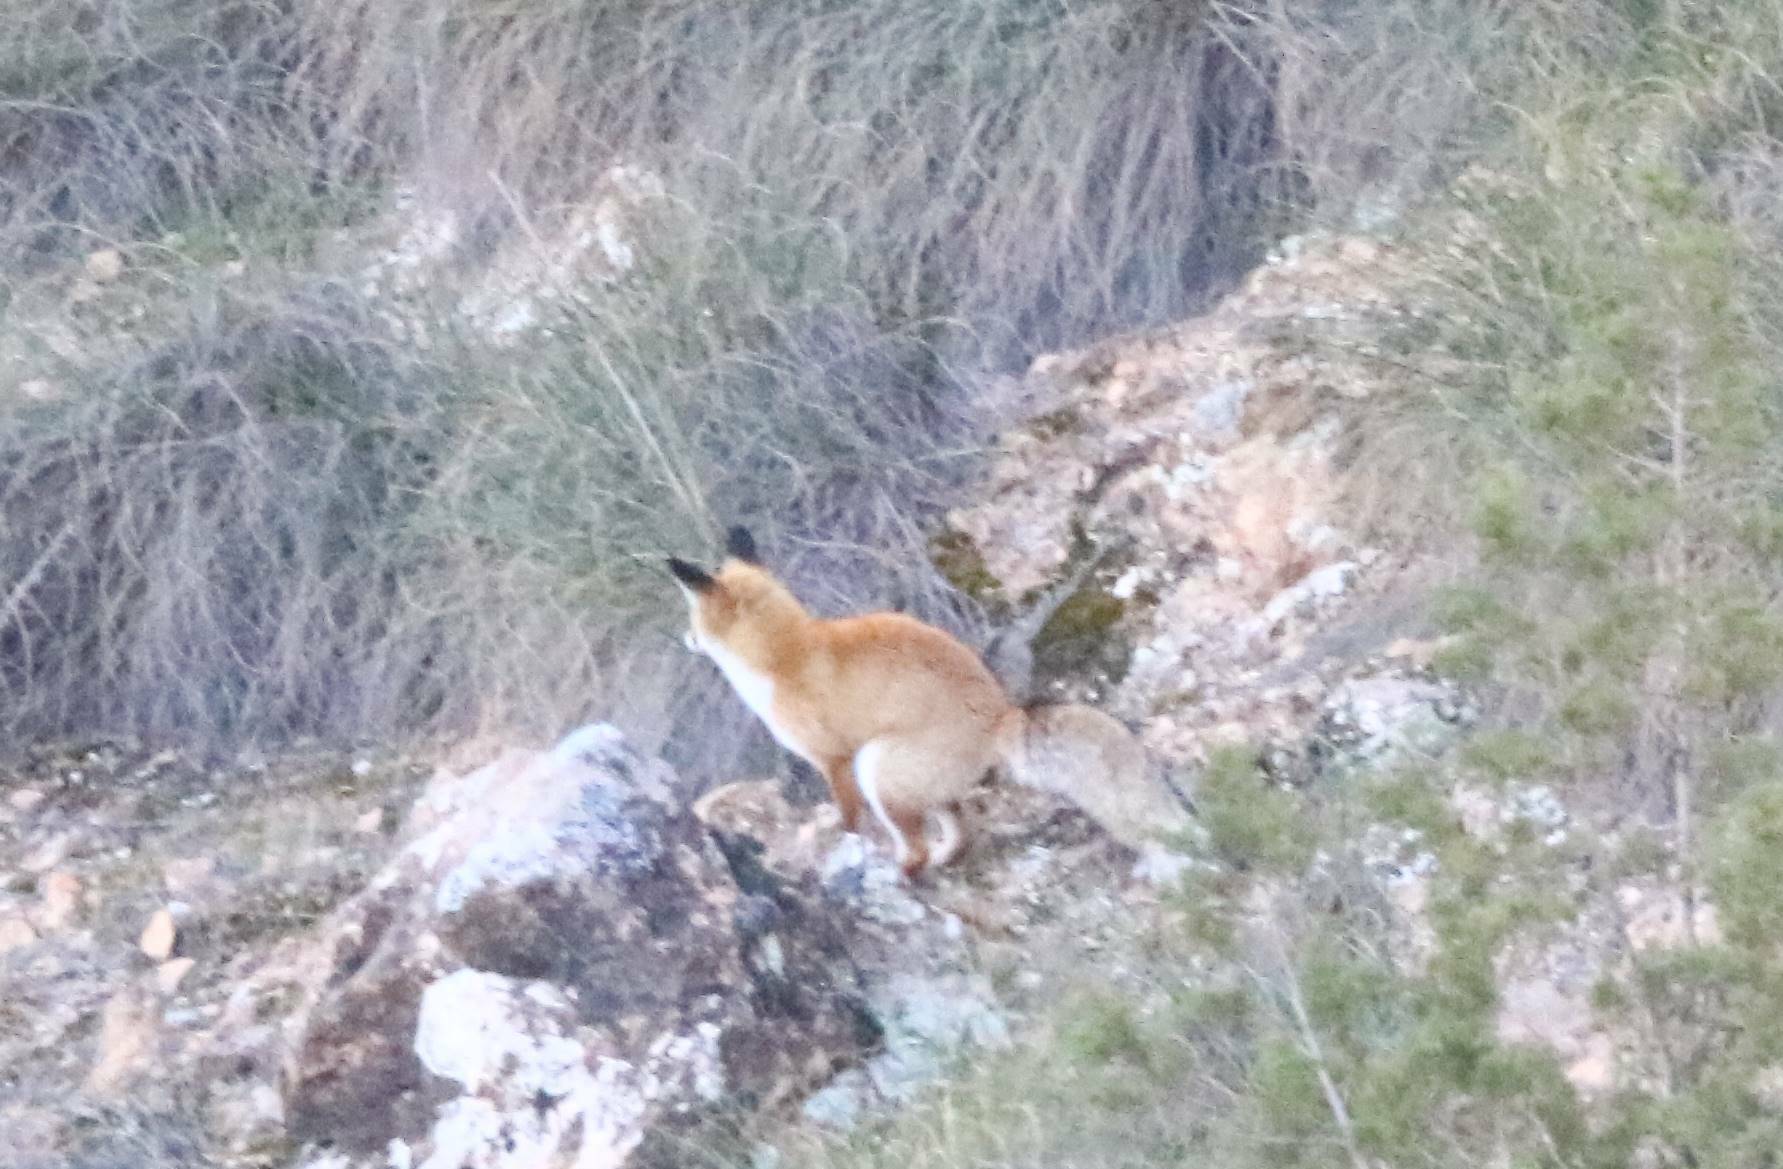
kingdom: Animalia
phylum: Chordata
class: Mammalia
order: Carnivora
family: Canidae
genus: Vulpes
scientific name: Vulpes vulpes
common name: Red fox
